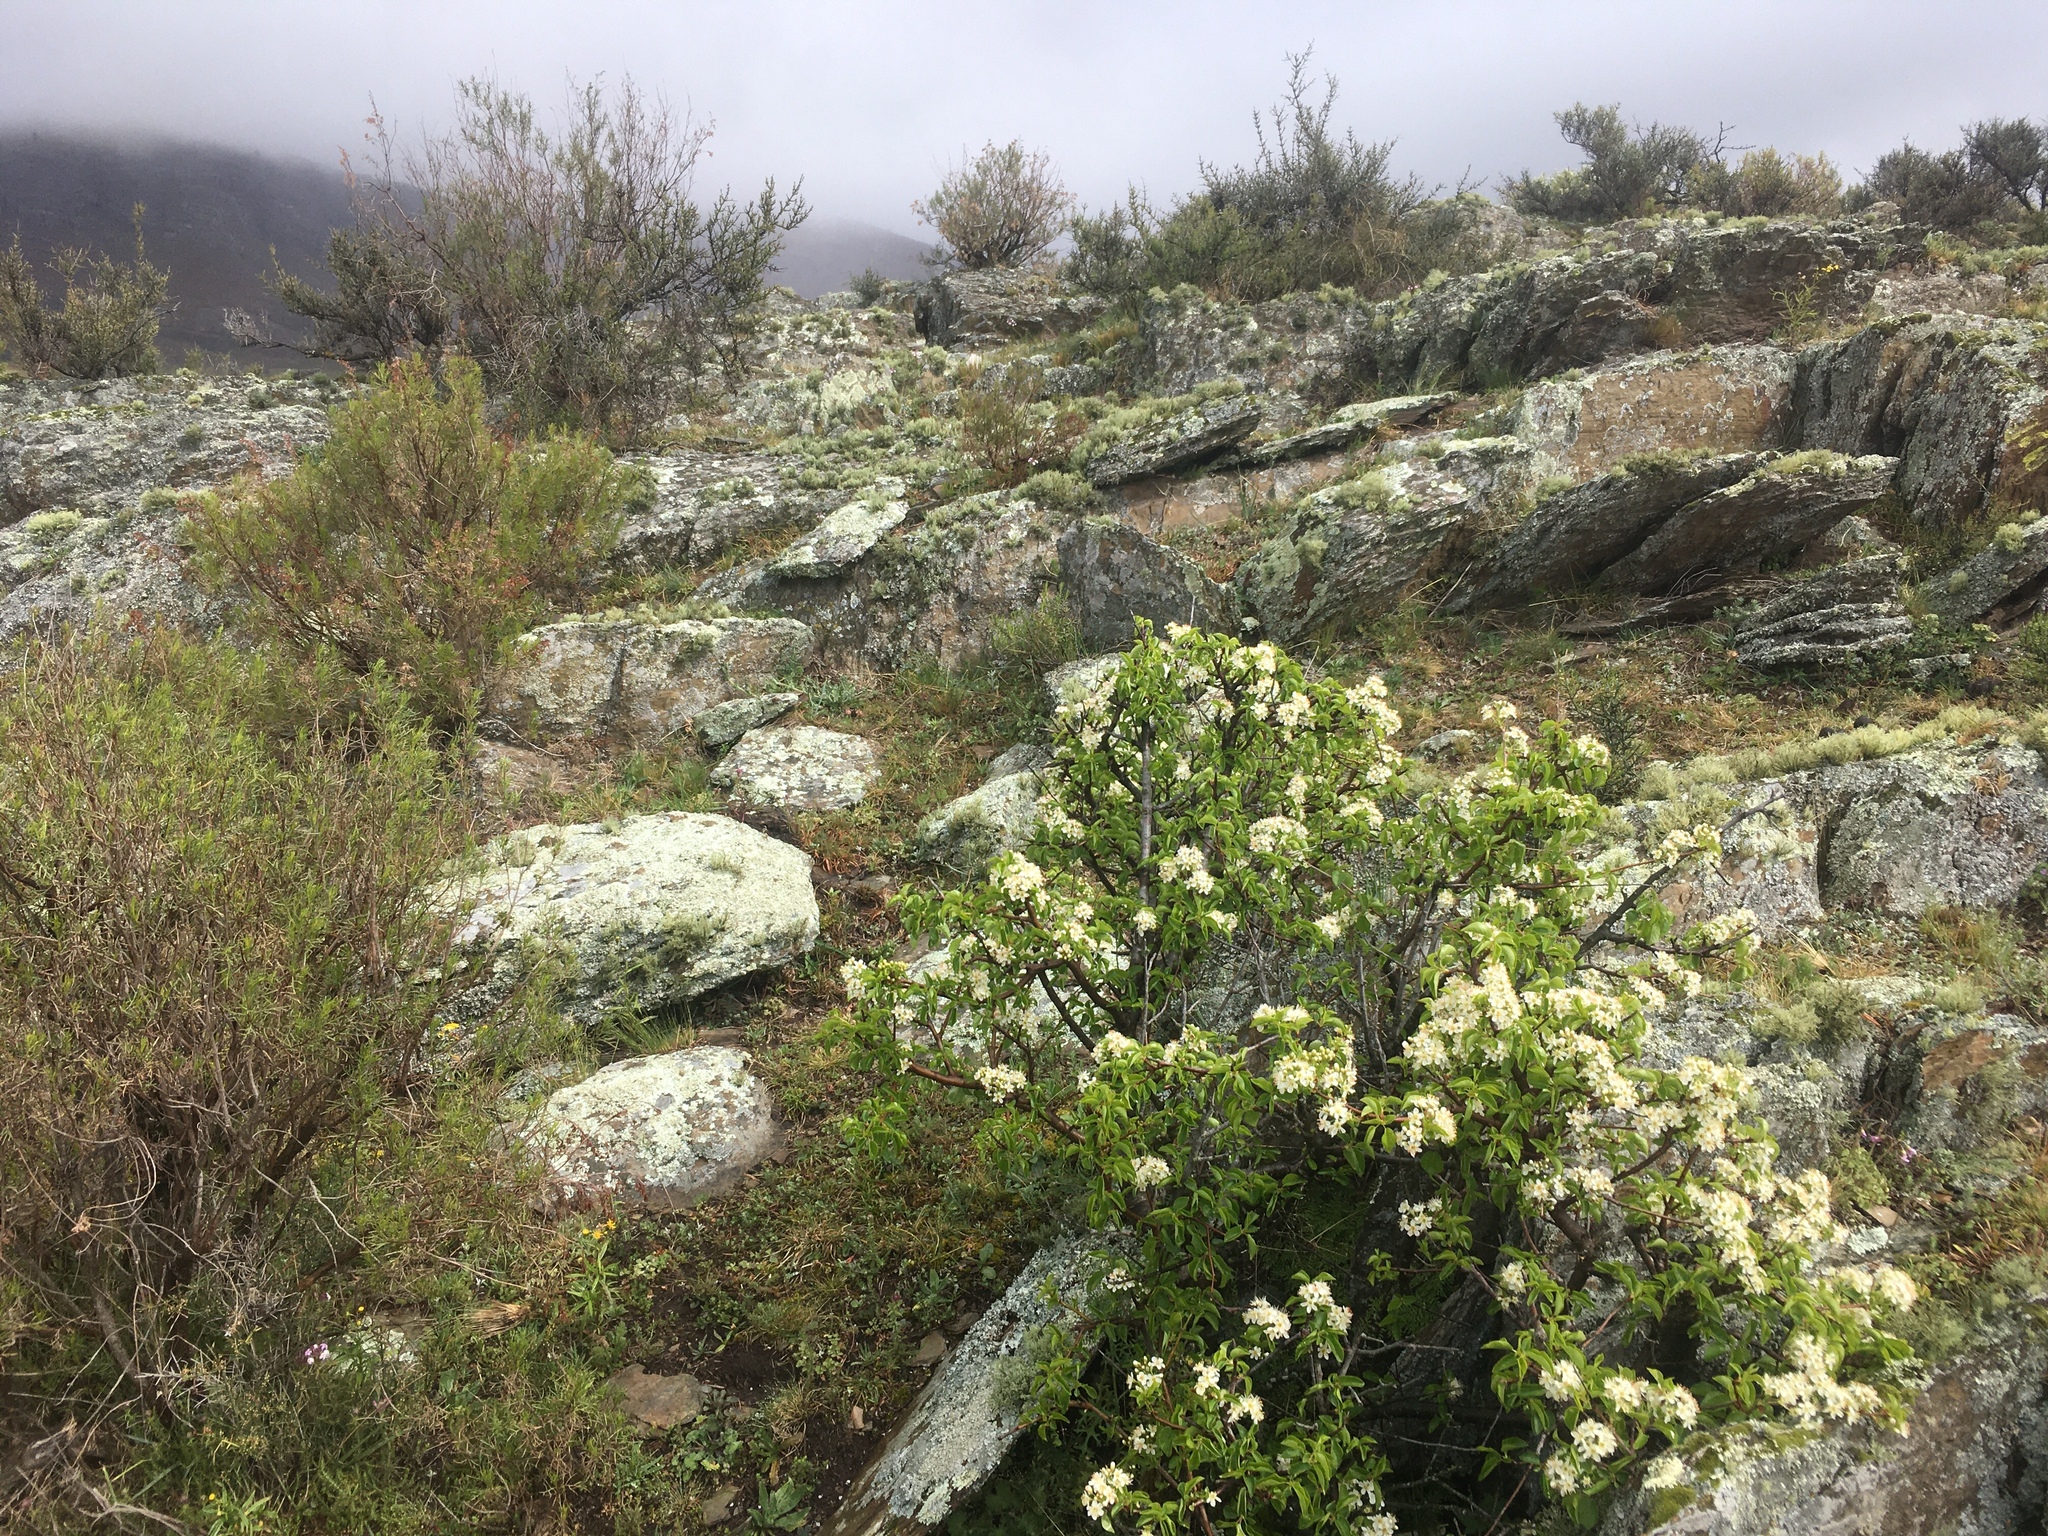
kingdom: Plantae
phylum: Tracheophyta
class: Magnoliopsida
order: Rosales
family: Rosaceae
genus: Prunus
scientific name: Prunus avium
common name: Sweet cherry
